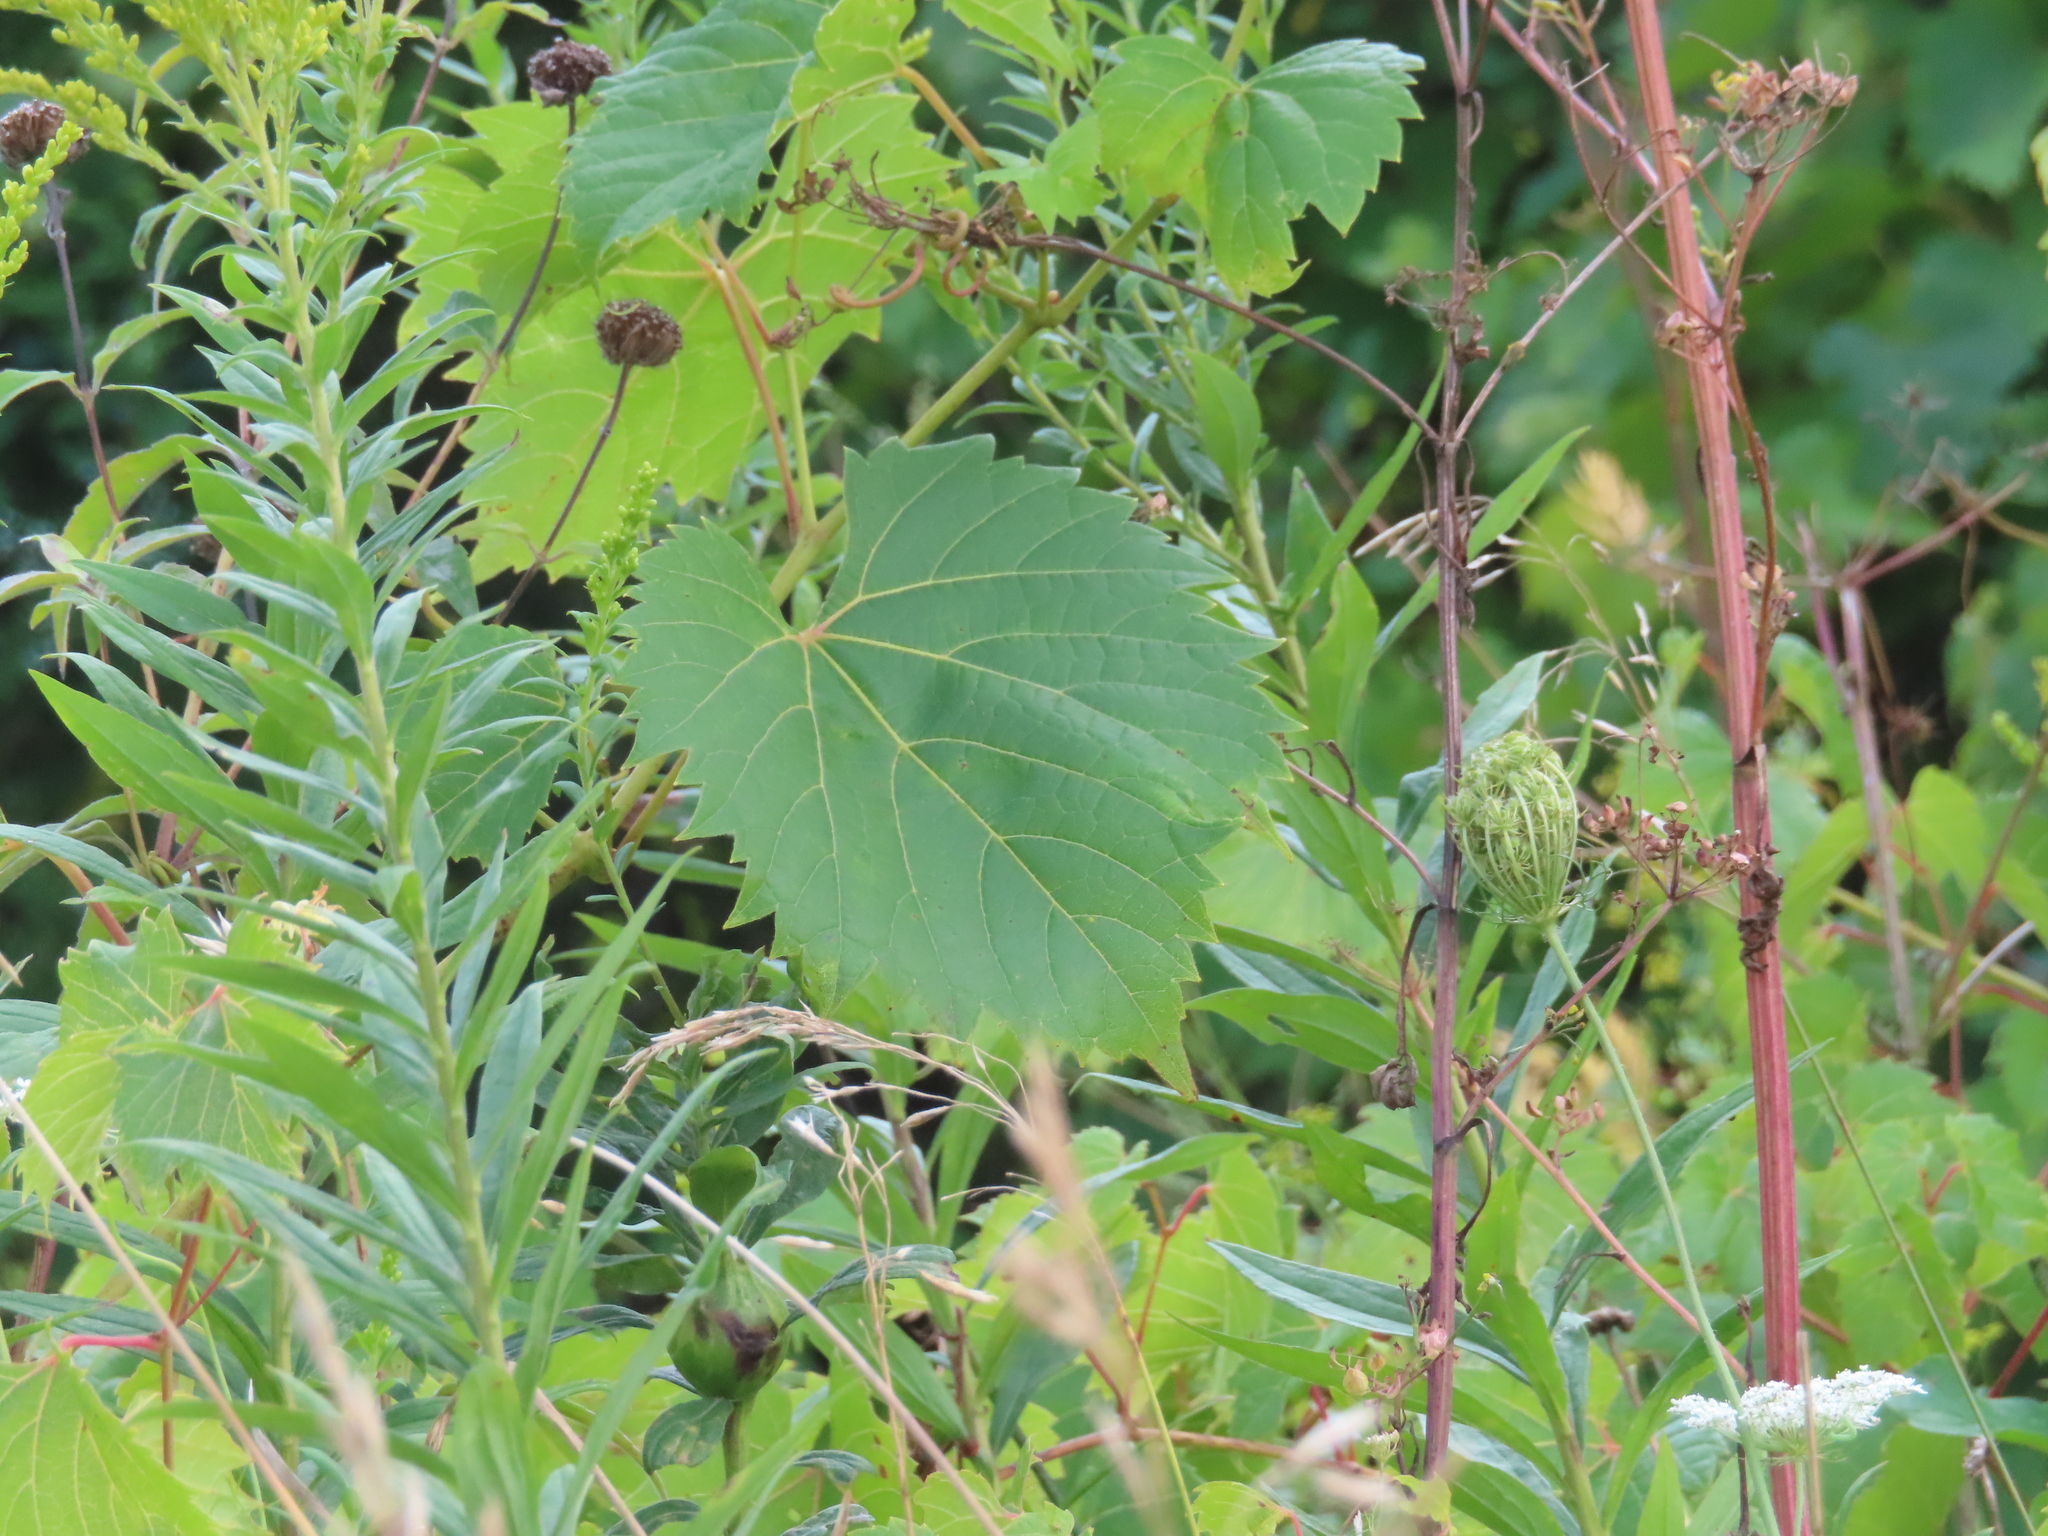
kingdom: Plantae
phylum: Tracheophyta
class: Magnoliopsida
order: Vitales
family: Vitaceae
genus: Vitis
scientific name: Vitis riparia
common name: Frost grape
